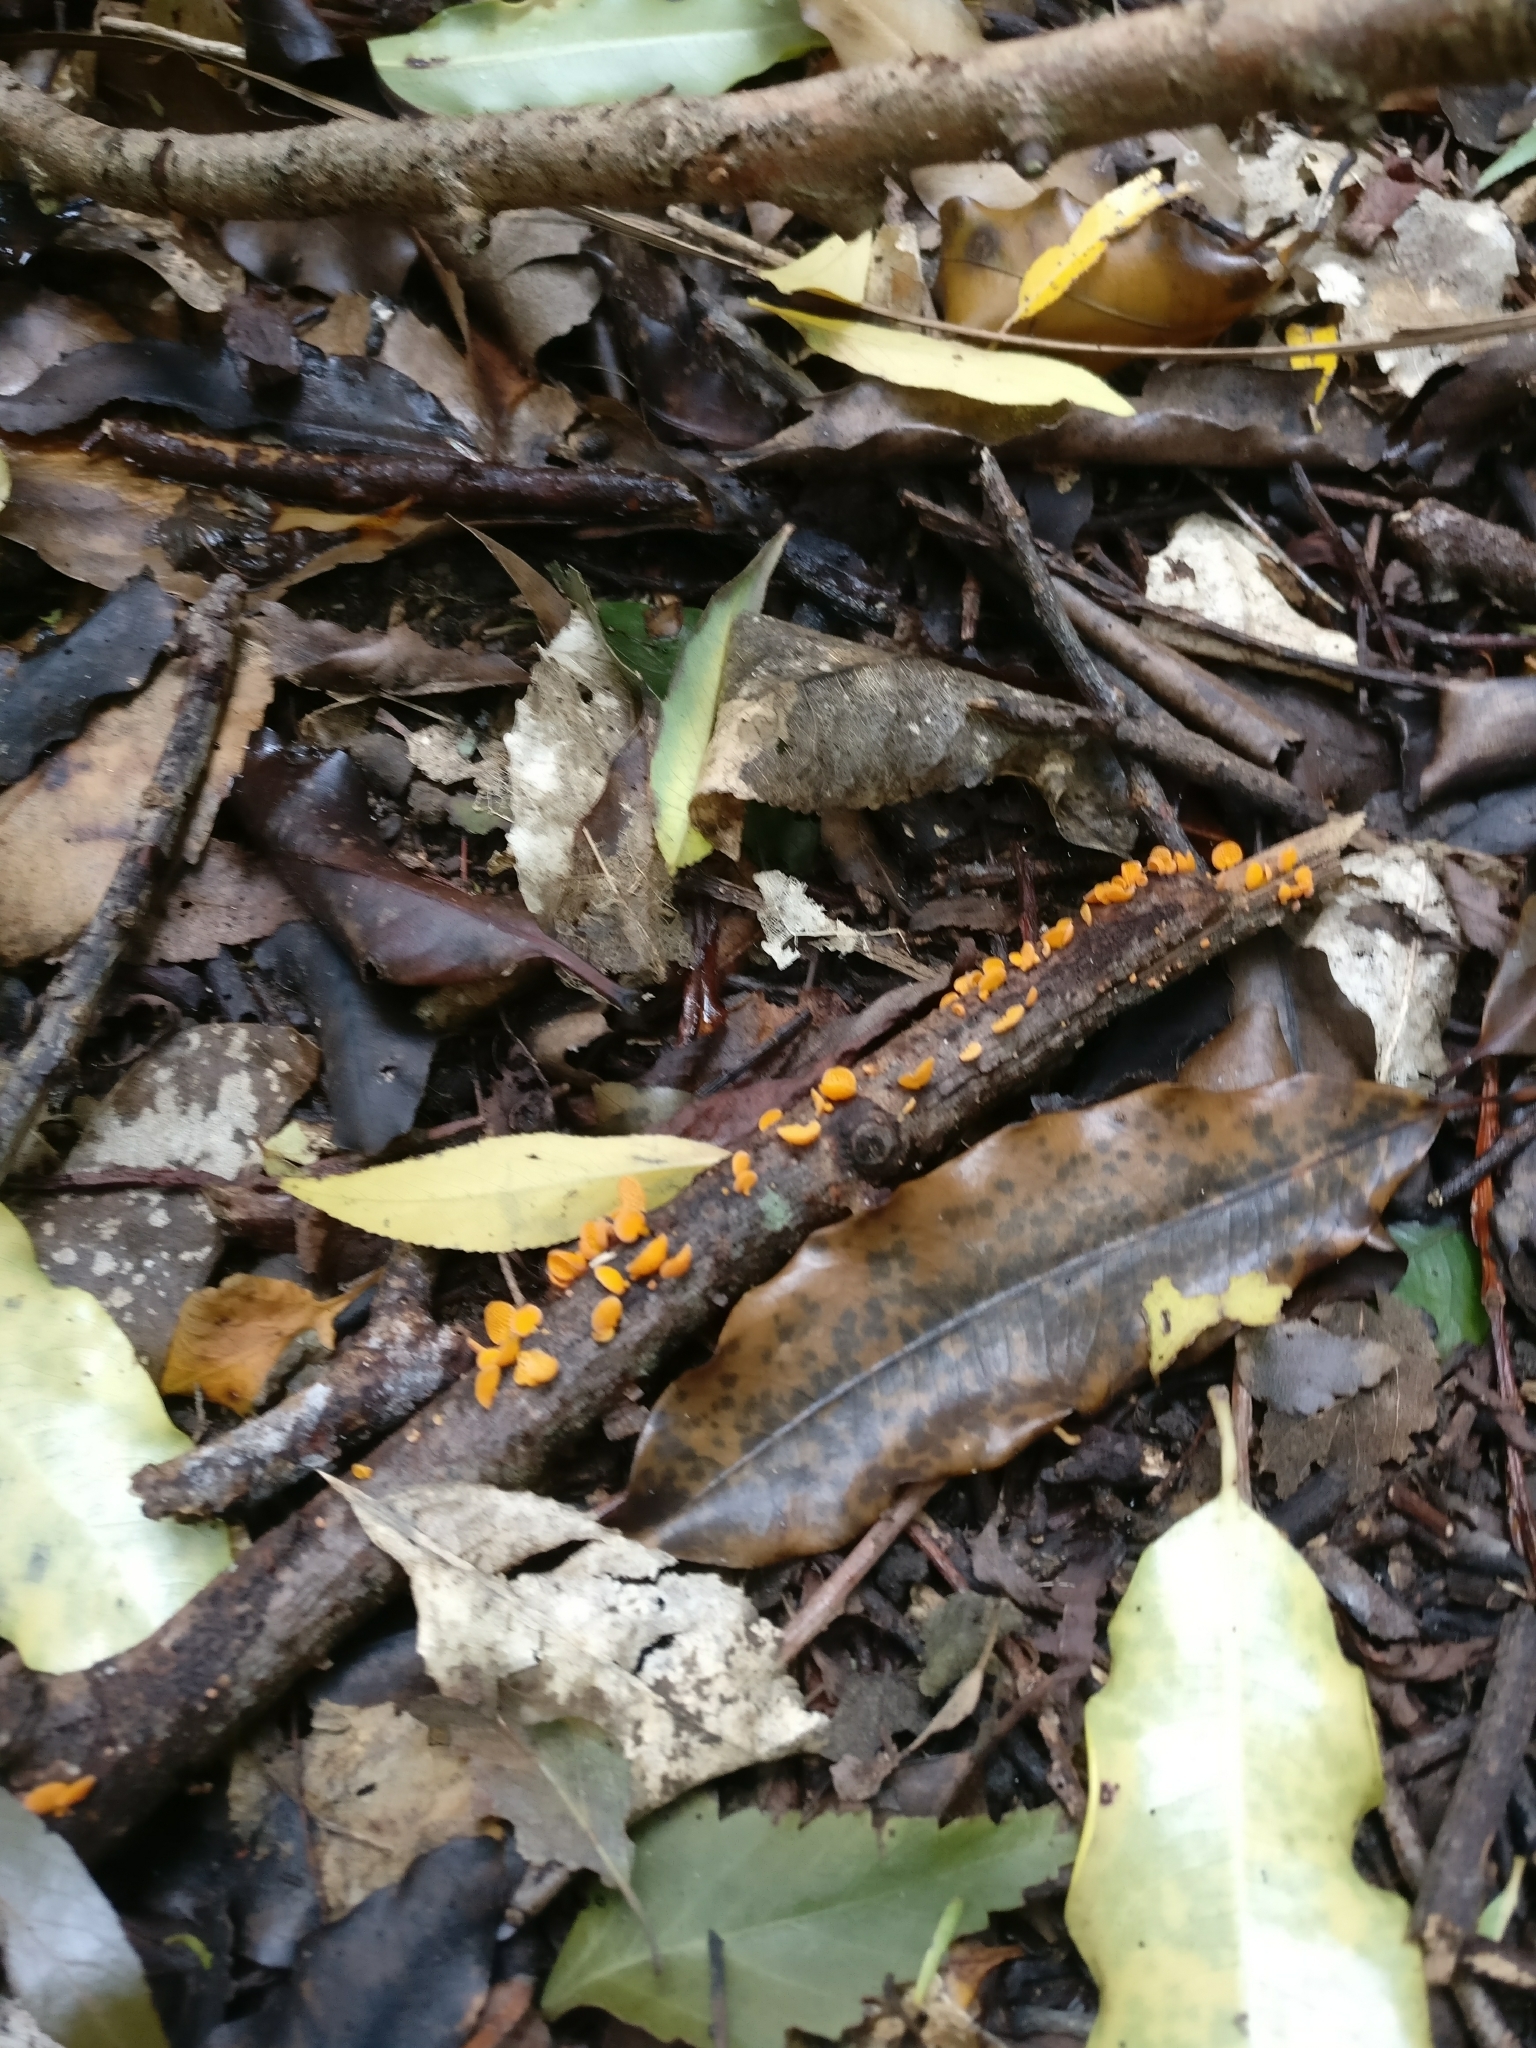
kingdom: Fungi
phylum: Basidiomycota
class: Agaricomycetes
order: Agaricales
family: Mycenaceae
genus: Favolaschia
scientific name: Favolaschia claudopus
